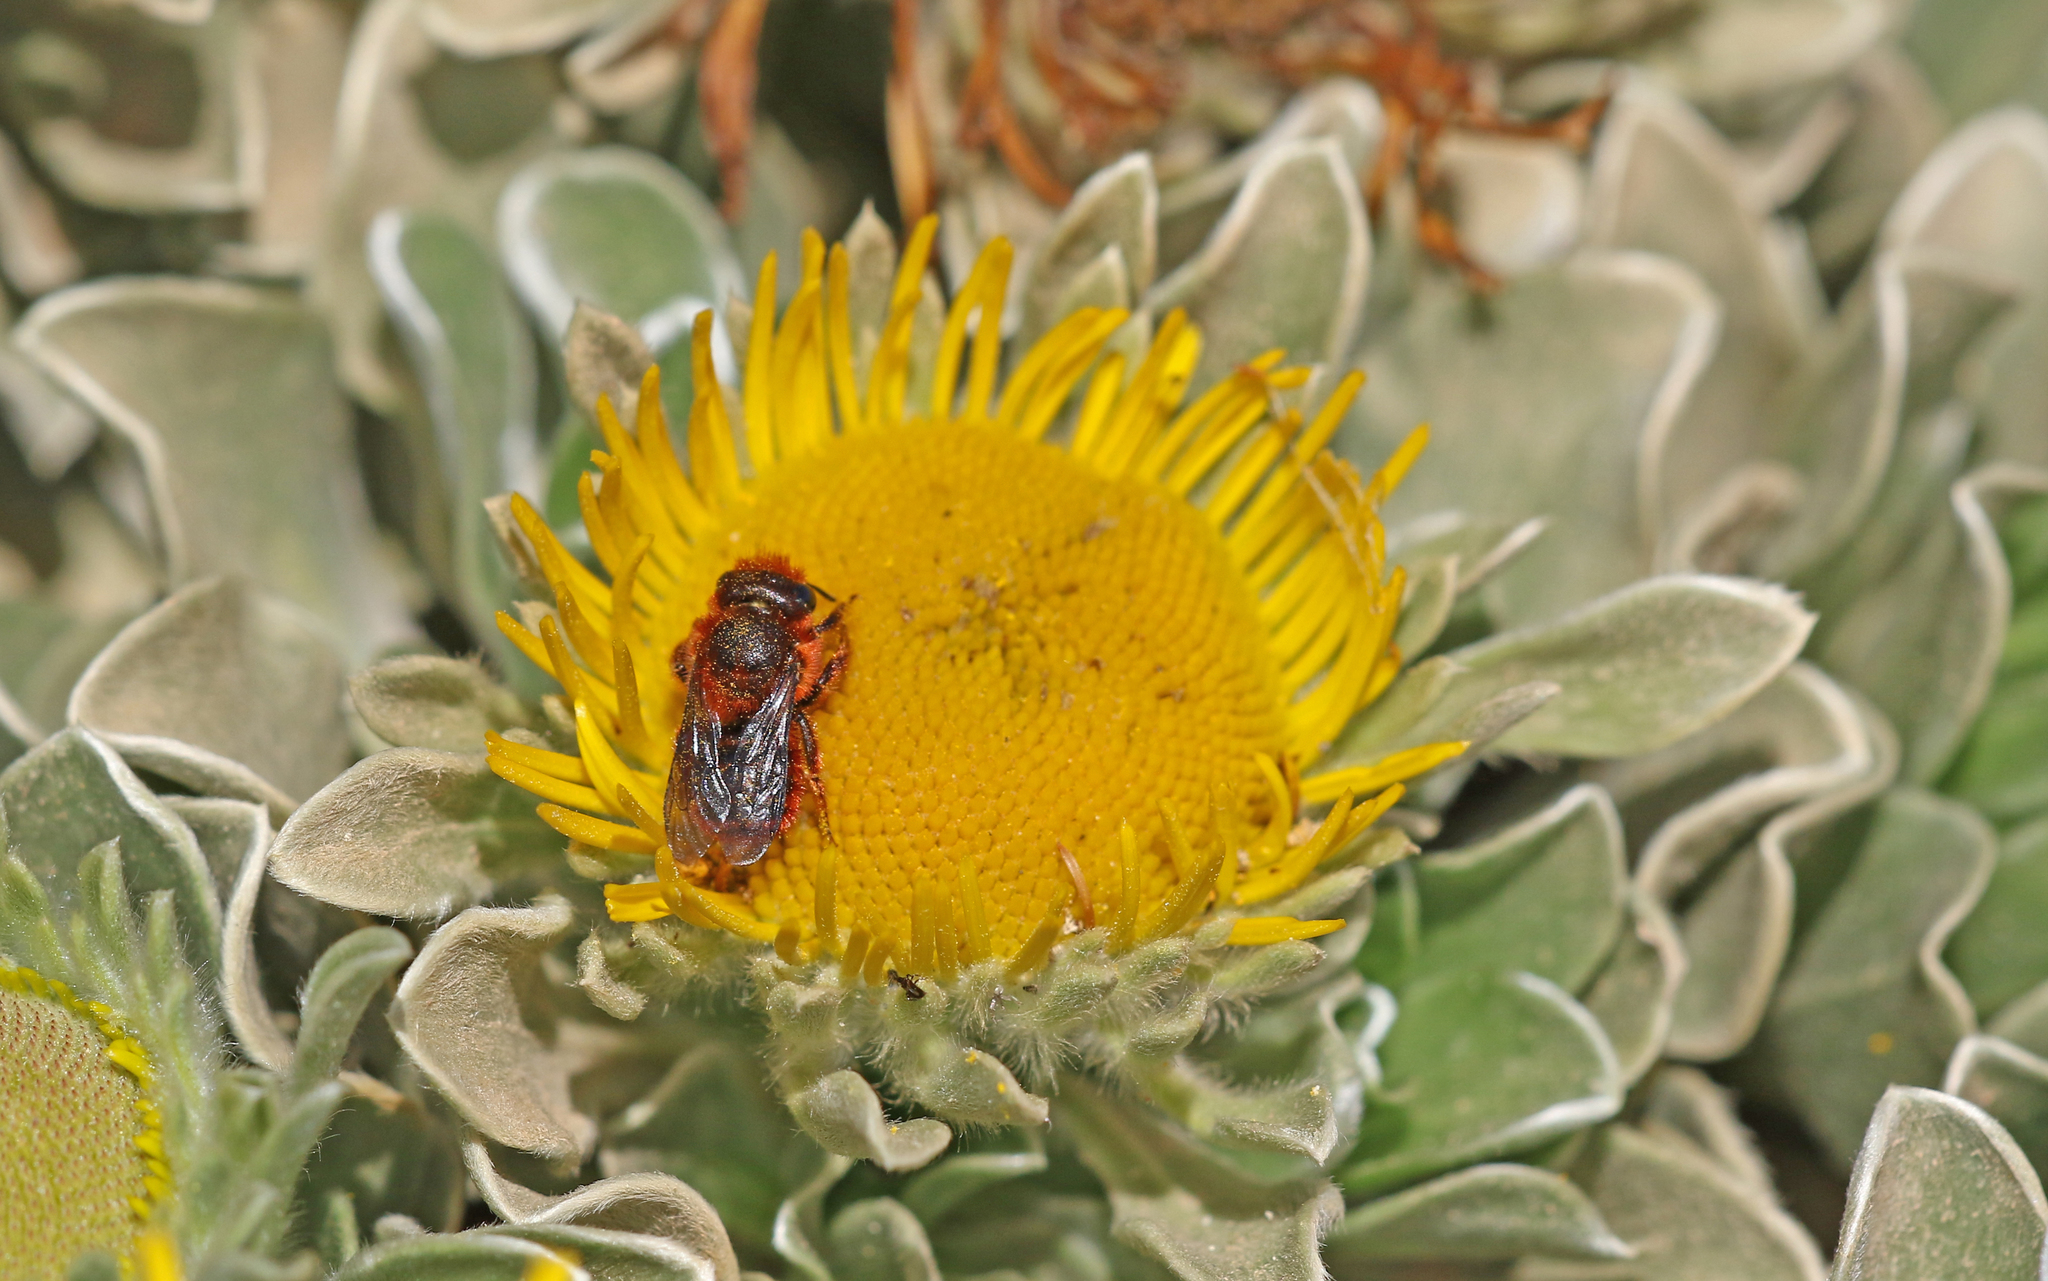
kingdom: Animalia
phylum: Arthropoda
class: Insecta
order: Hymenoptera
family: Megachilidae
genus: Osmia
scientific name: Osmia cinnabarina
